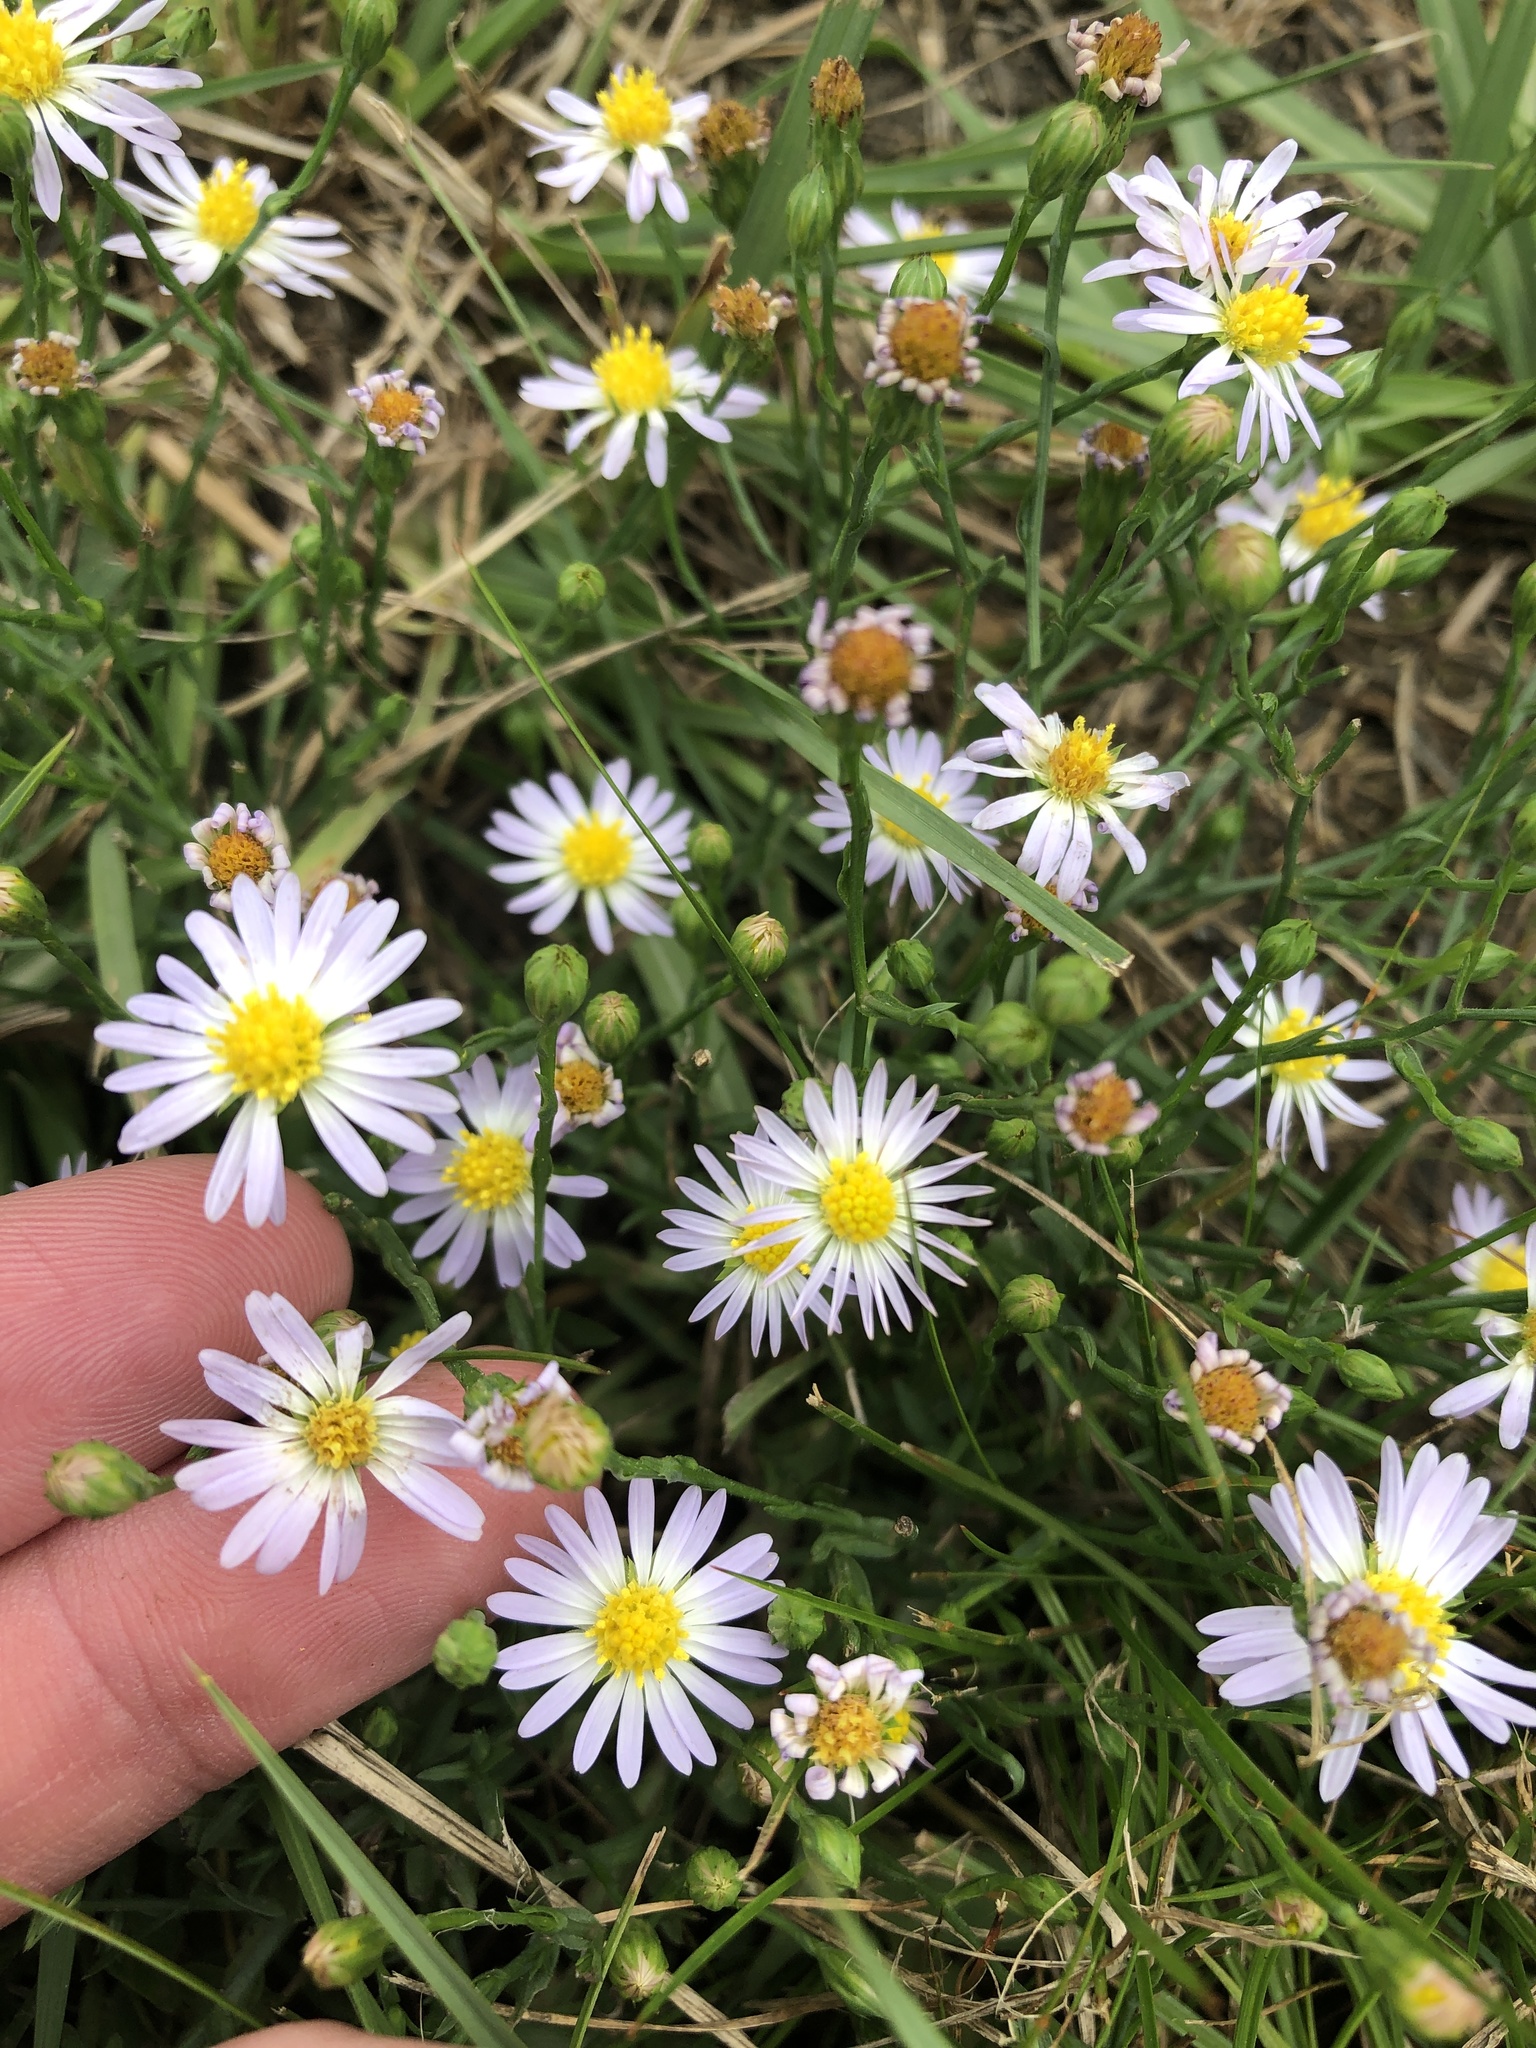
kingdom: Plantae
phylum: Tracheophyta
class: Magnoliopsida
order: Asterales
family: Asteraceae
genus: Symphyotrichum
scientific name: Symphyotrichum divaricatum
